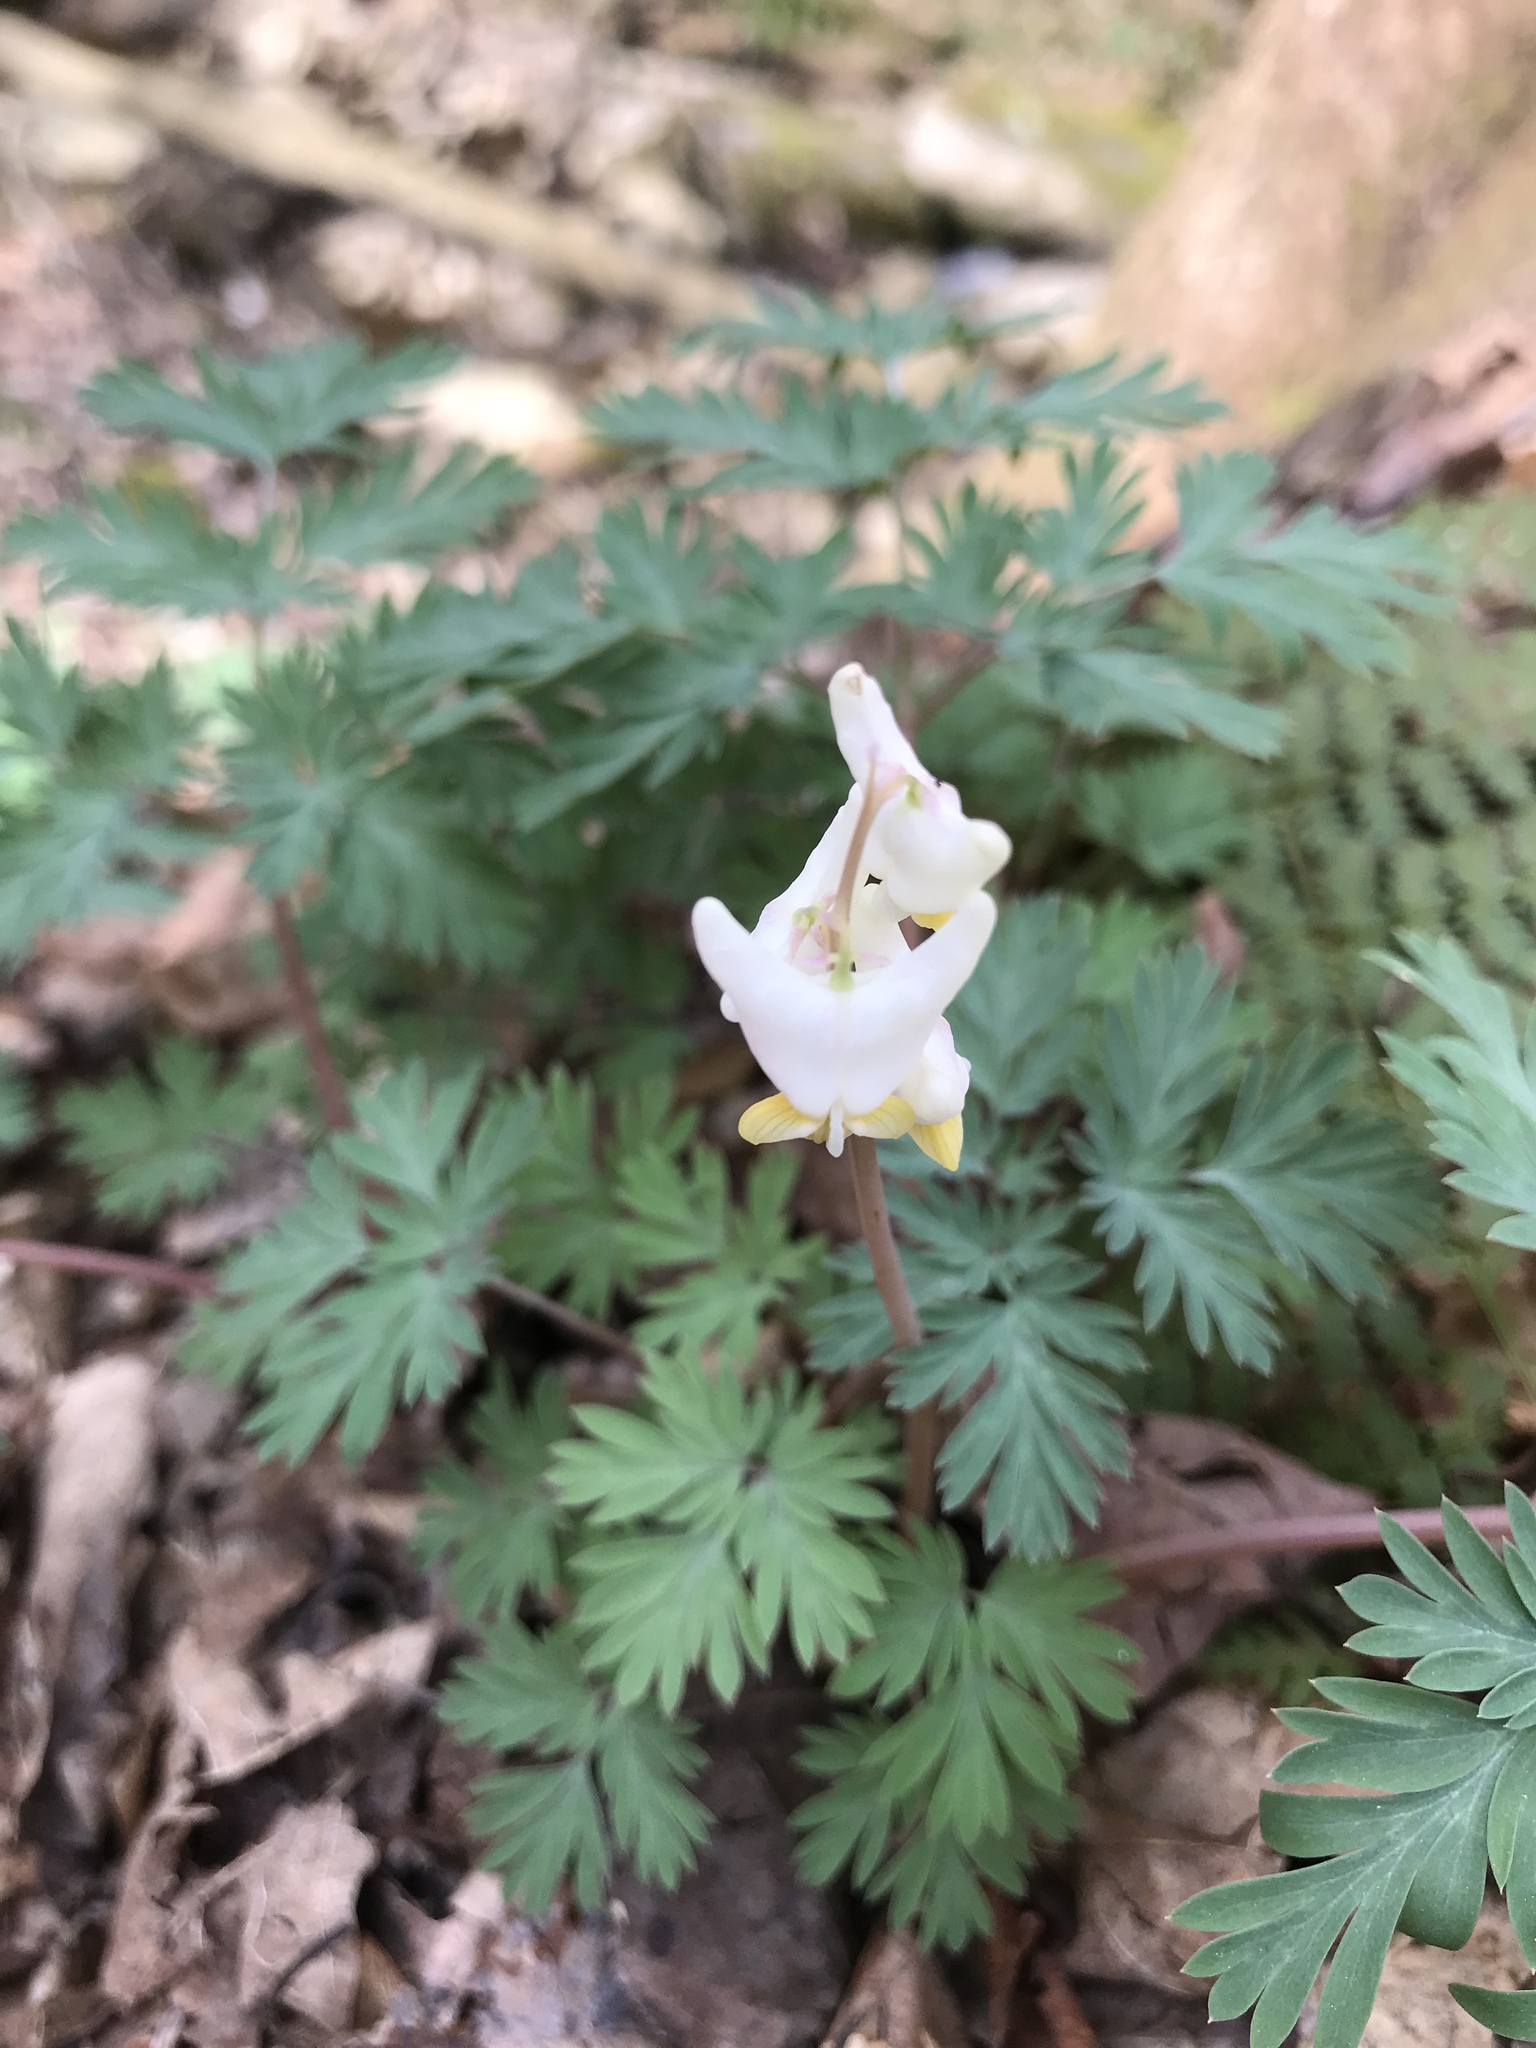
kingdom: Plantae
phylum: Tracheophyta
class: Magnoliopsida
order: Ranunculales
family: Papaveraceae
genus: Dicentra
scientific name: Dicentra cucullaria
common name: Dutchman's breeches
